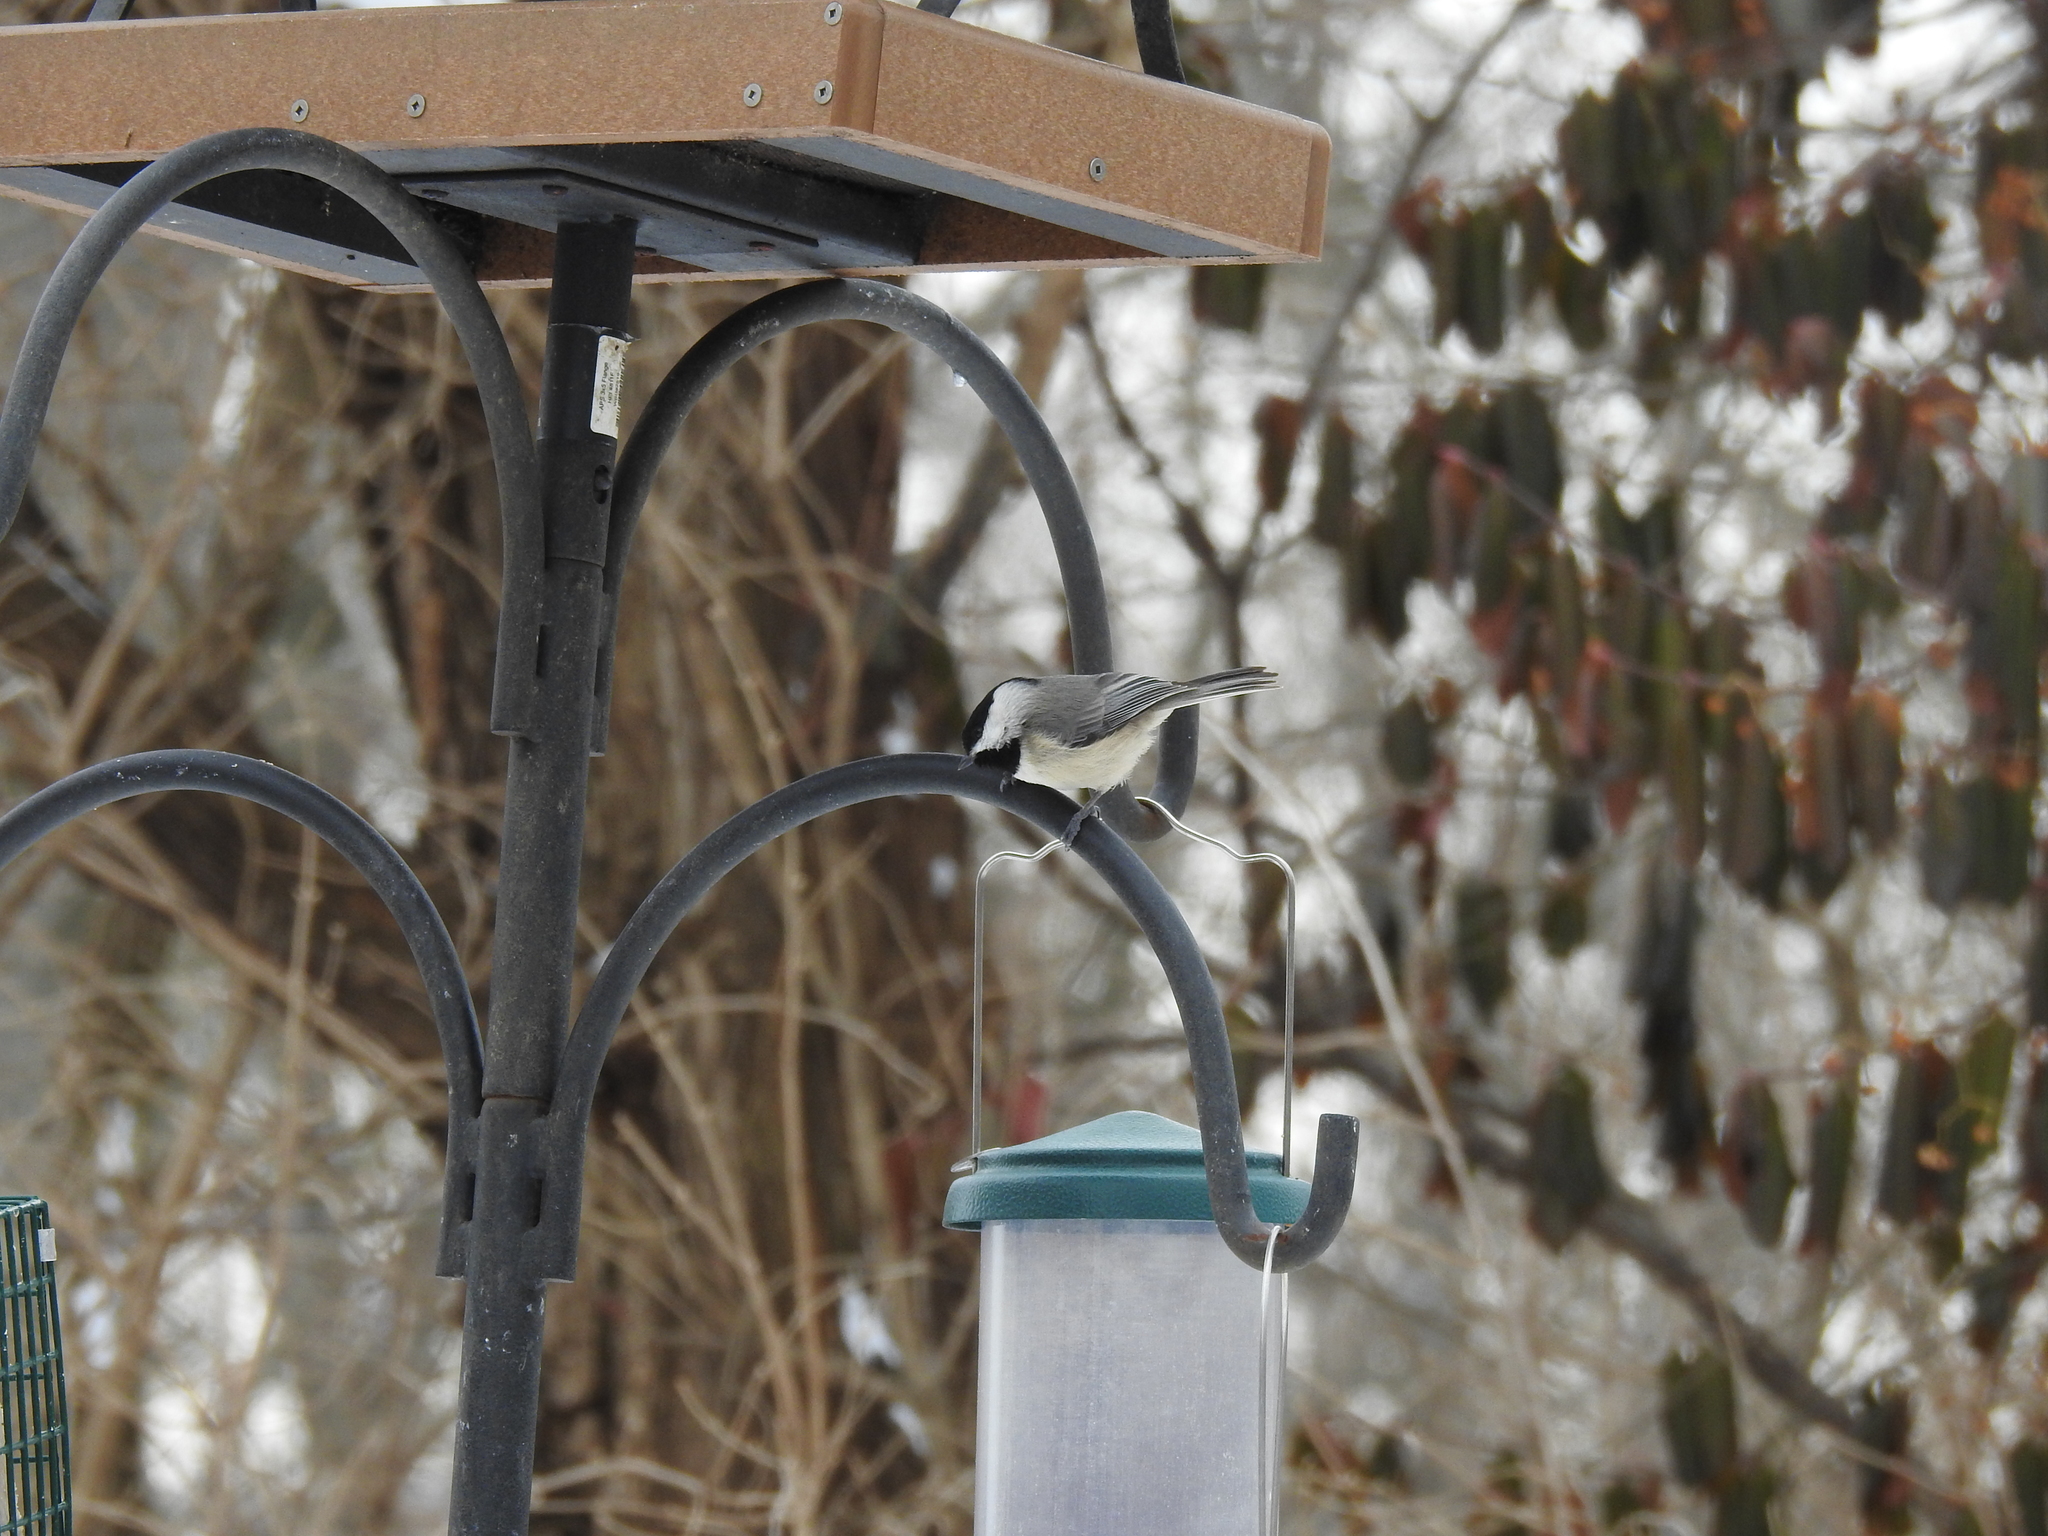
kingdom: Animalia
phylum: Chordata
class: Aves
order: Passeriformes
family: Paridae
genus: Poecile
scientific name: Poecile carolinensis
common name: Carolina chickadee
